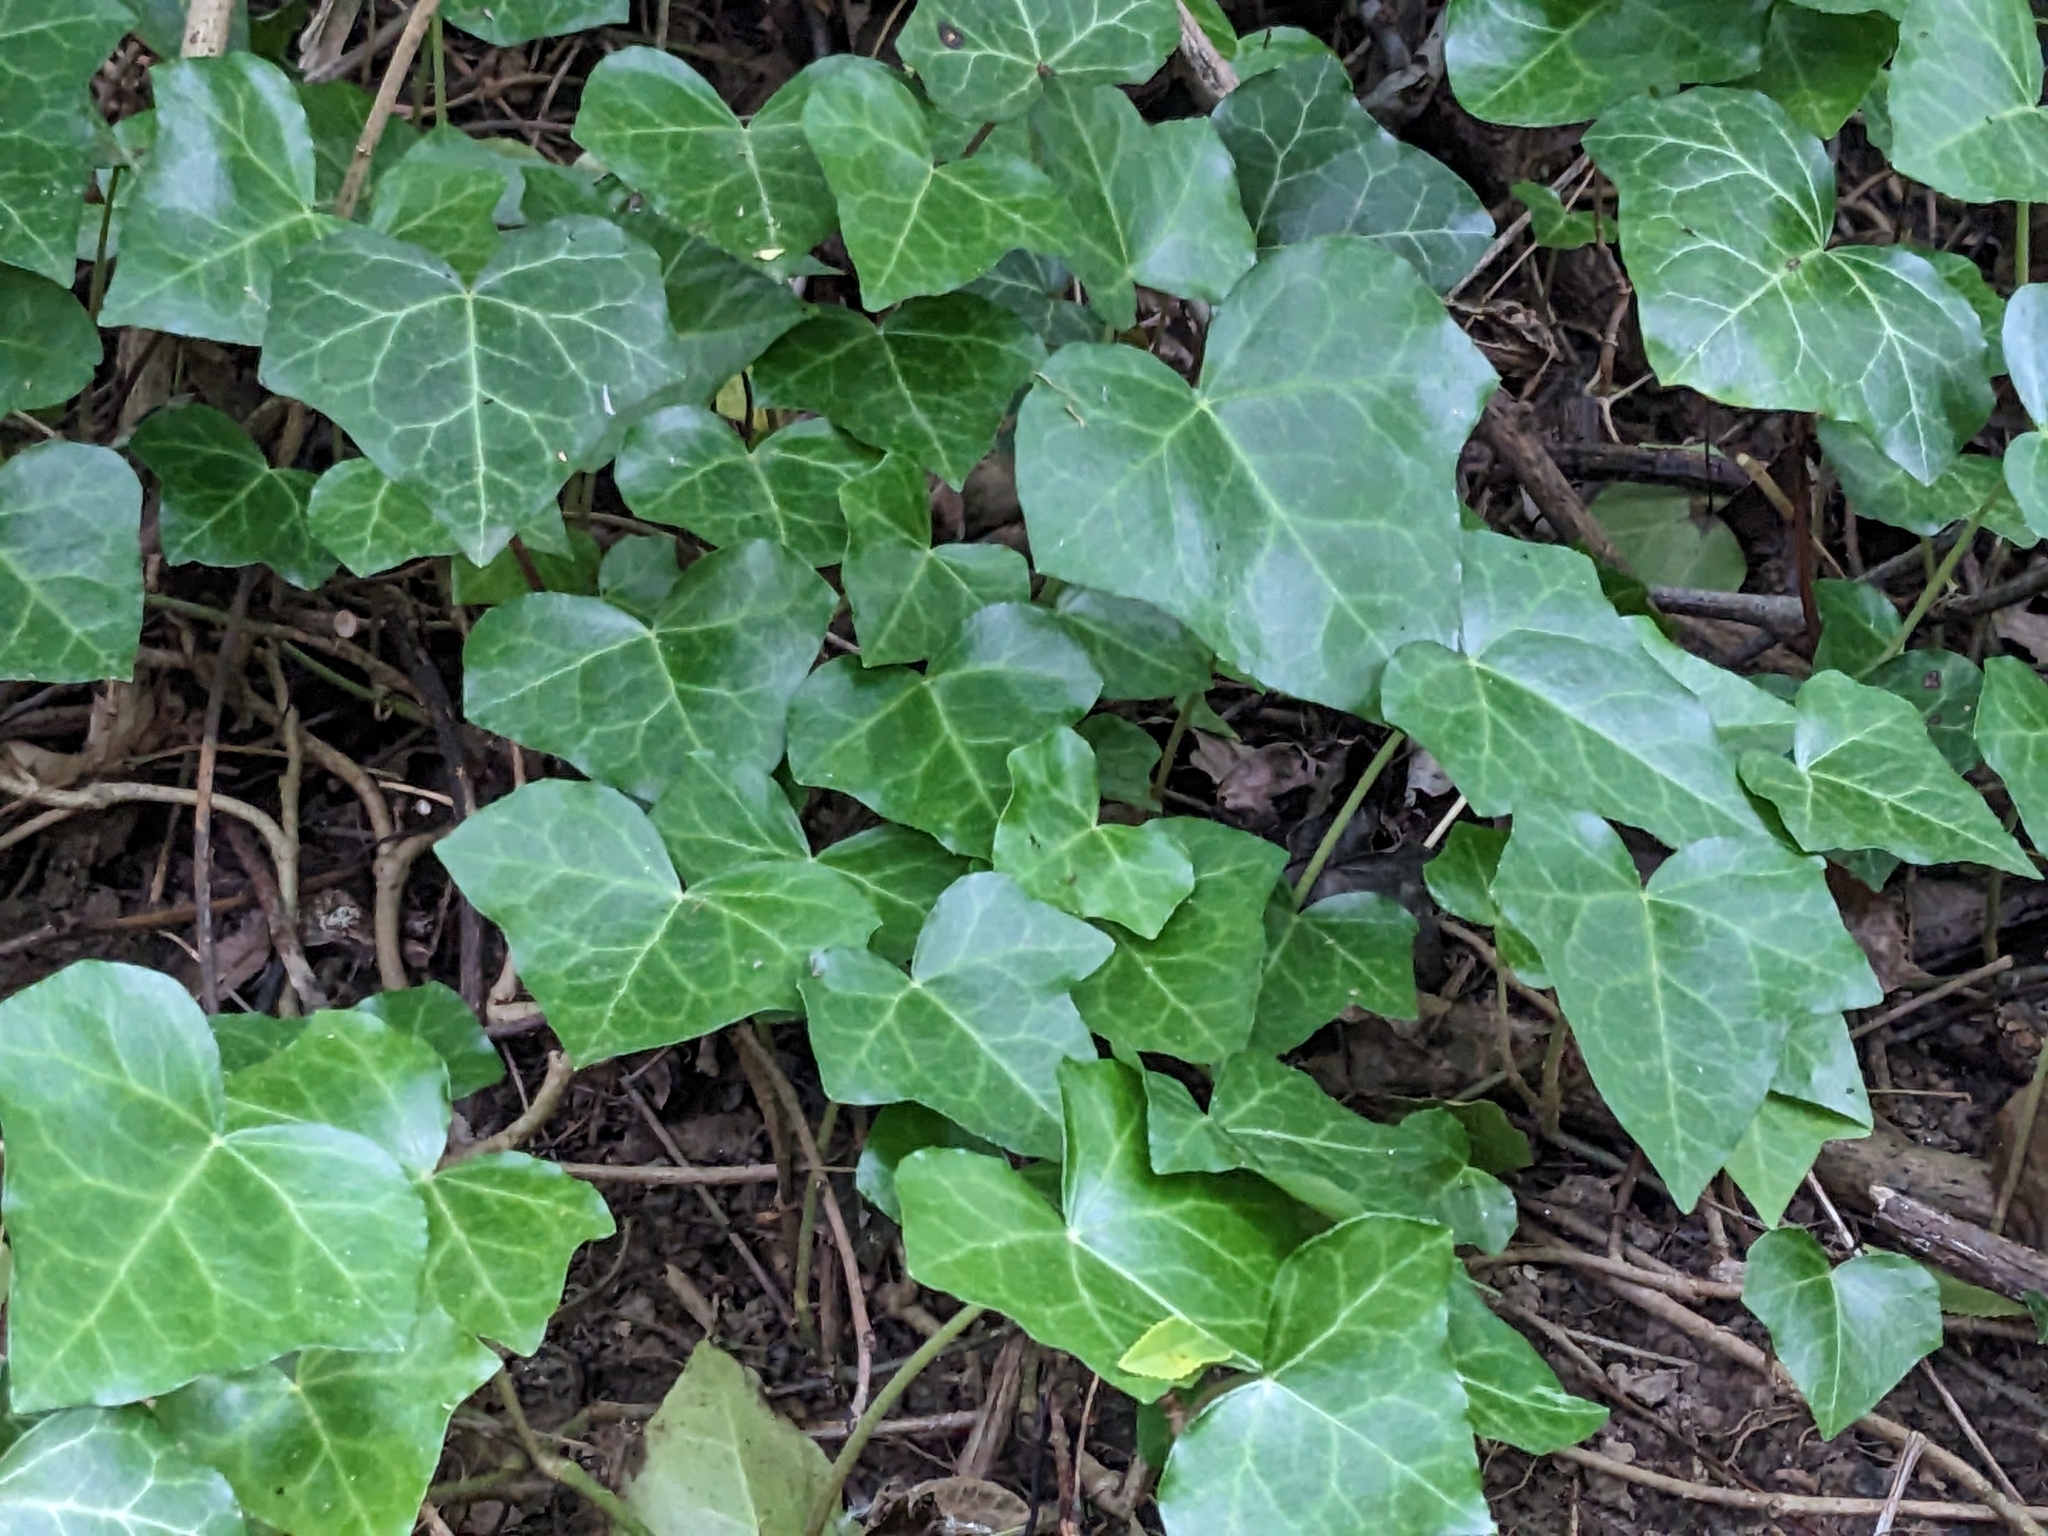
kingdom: Plantae
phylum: Tracheophyta
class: Magnoliopsida
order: Apiales
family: Araliaceae
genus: Hedera
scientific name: Hedera helix
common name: Ivy
